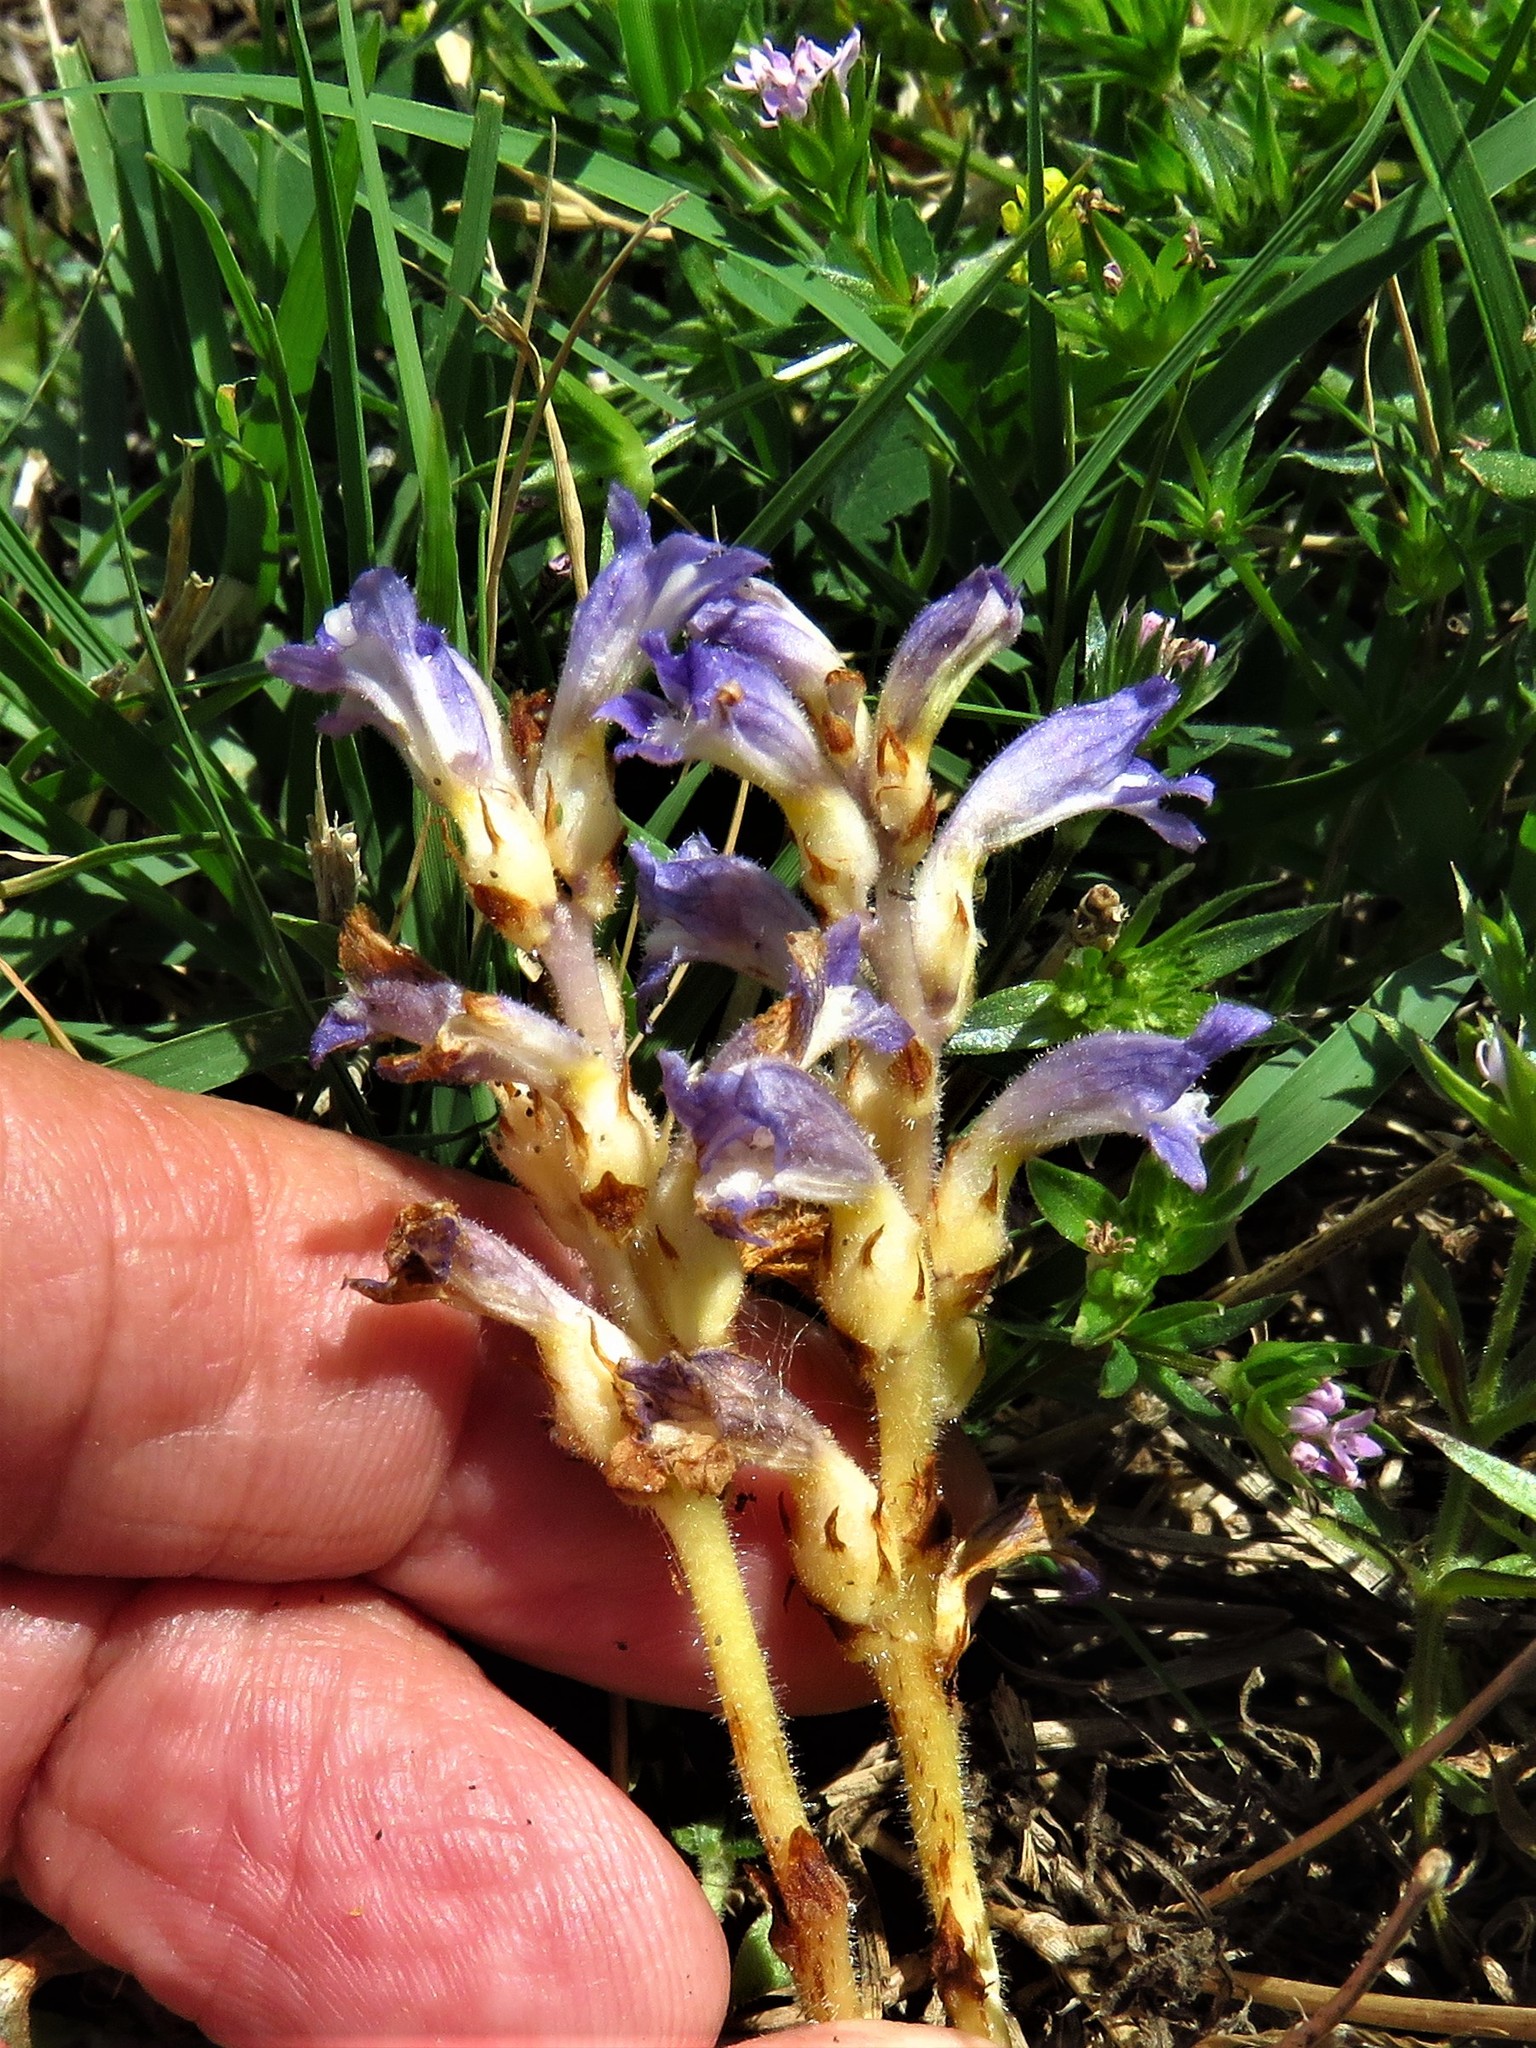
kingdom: Plantae
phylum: Tracheophyta
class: Magnoliopsida
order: Lamiales
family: Orobanchaceae
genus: Phelipanche
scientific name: Phelipanche mutelii
